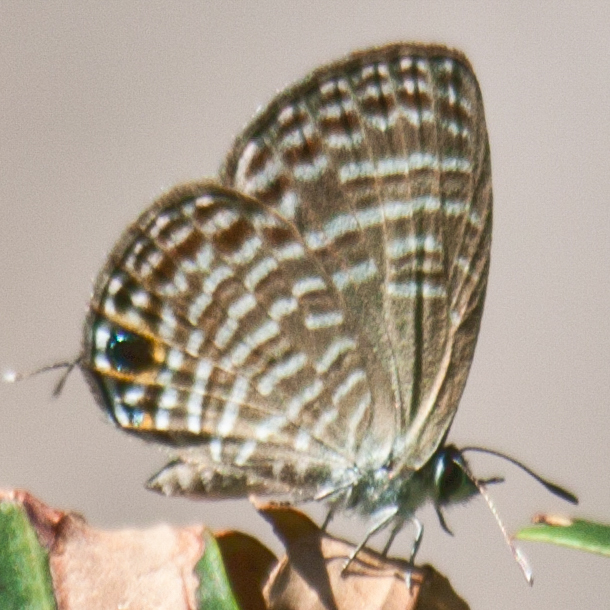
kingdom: Animalia
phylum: Arthropoda
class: Insecta
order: Lepidoptera
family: Lycaenidae
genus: Nacaduba
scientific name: Nacaduba pavana
